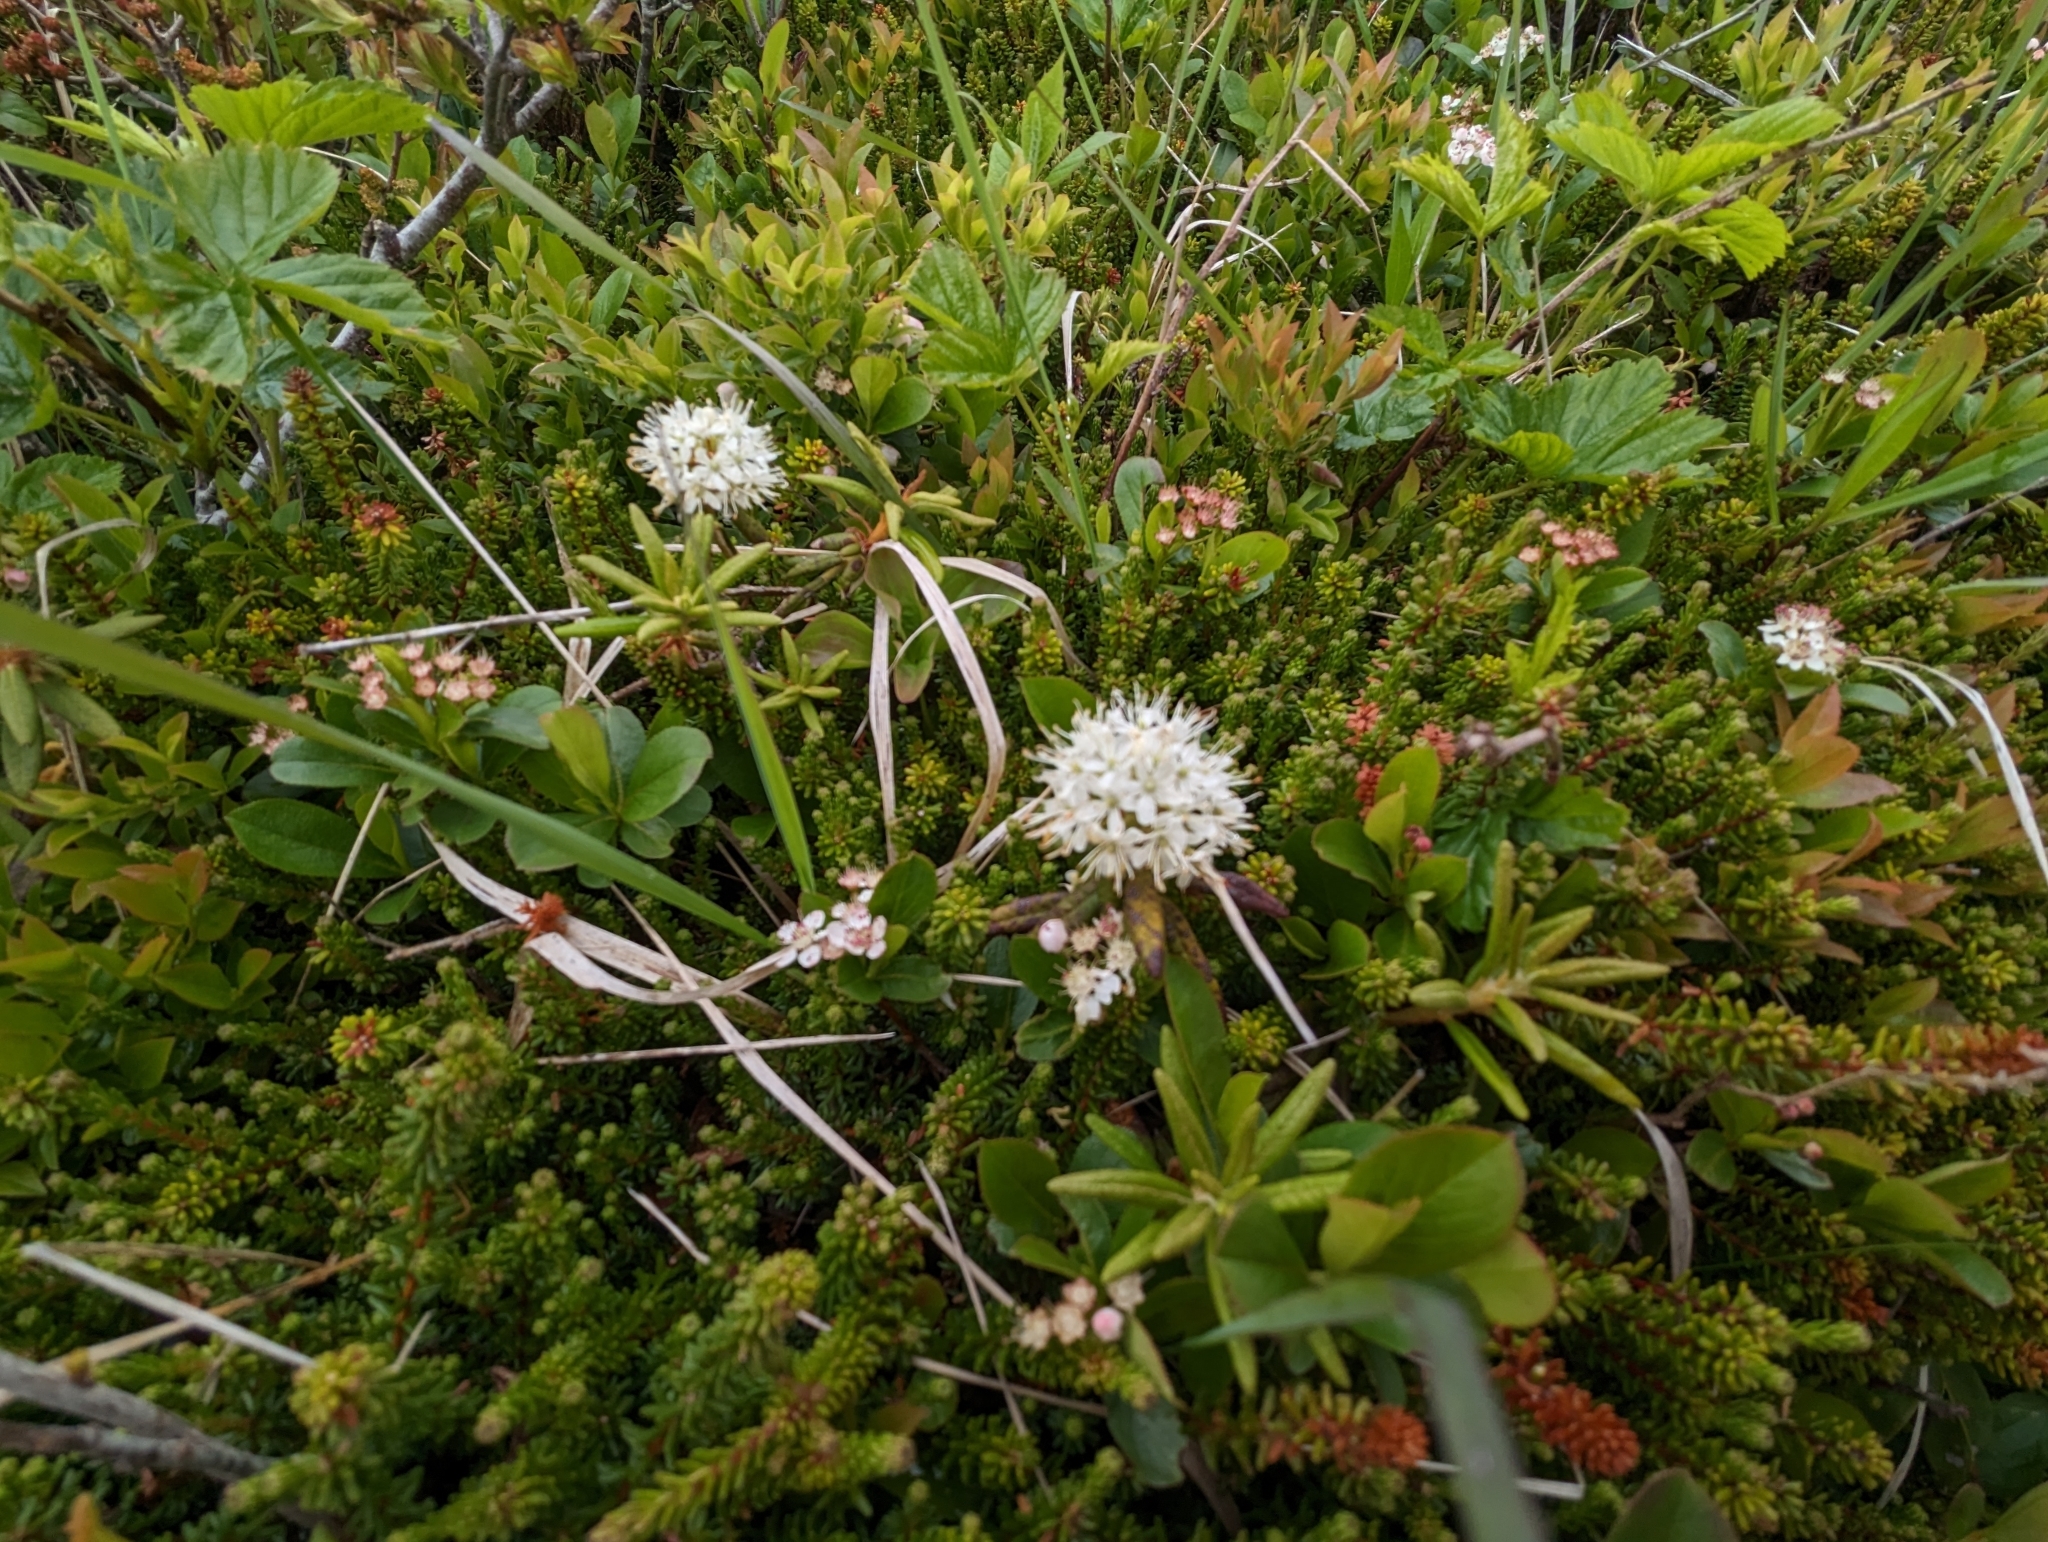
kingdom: Plantae
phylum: Tracheophyta
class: Magnoliopsida
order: Ericales
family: Ericaceae
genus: Rhododendron
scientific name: Rhododendron groenlandicum
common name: Bog labrador tea
